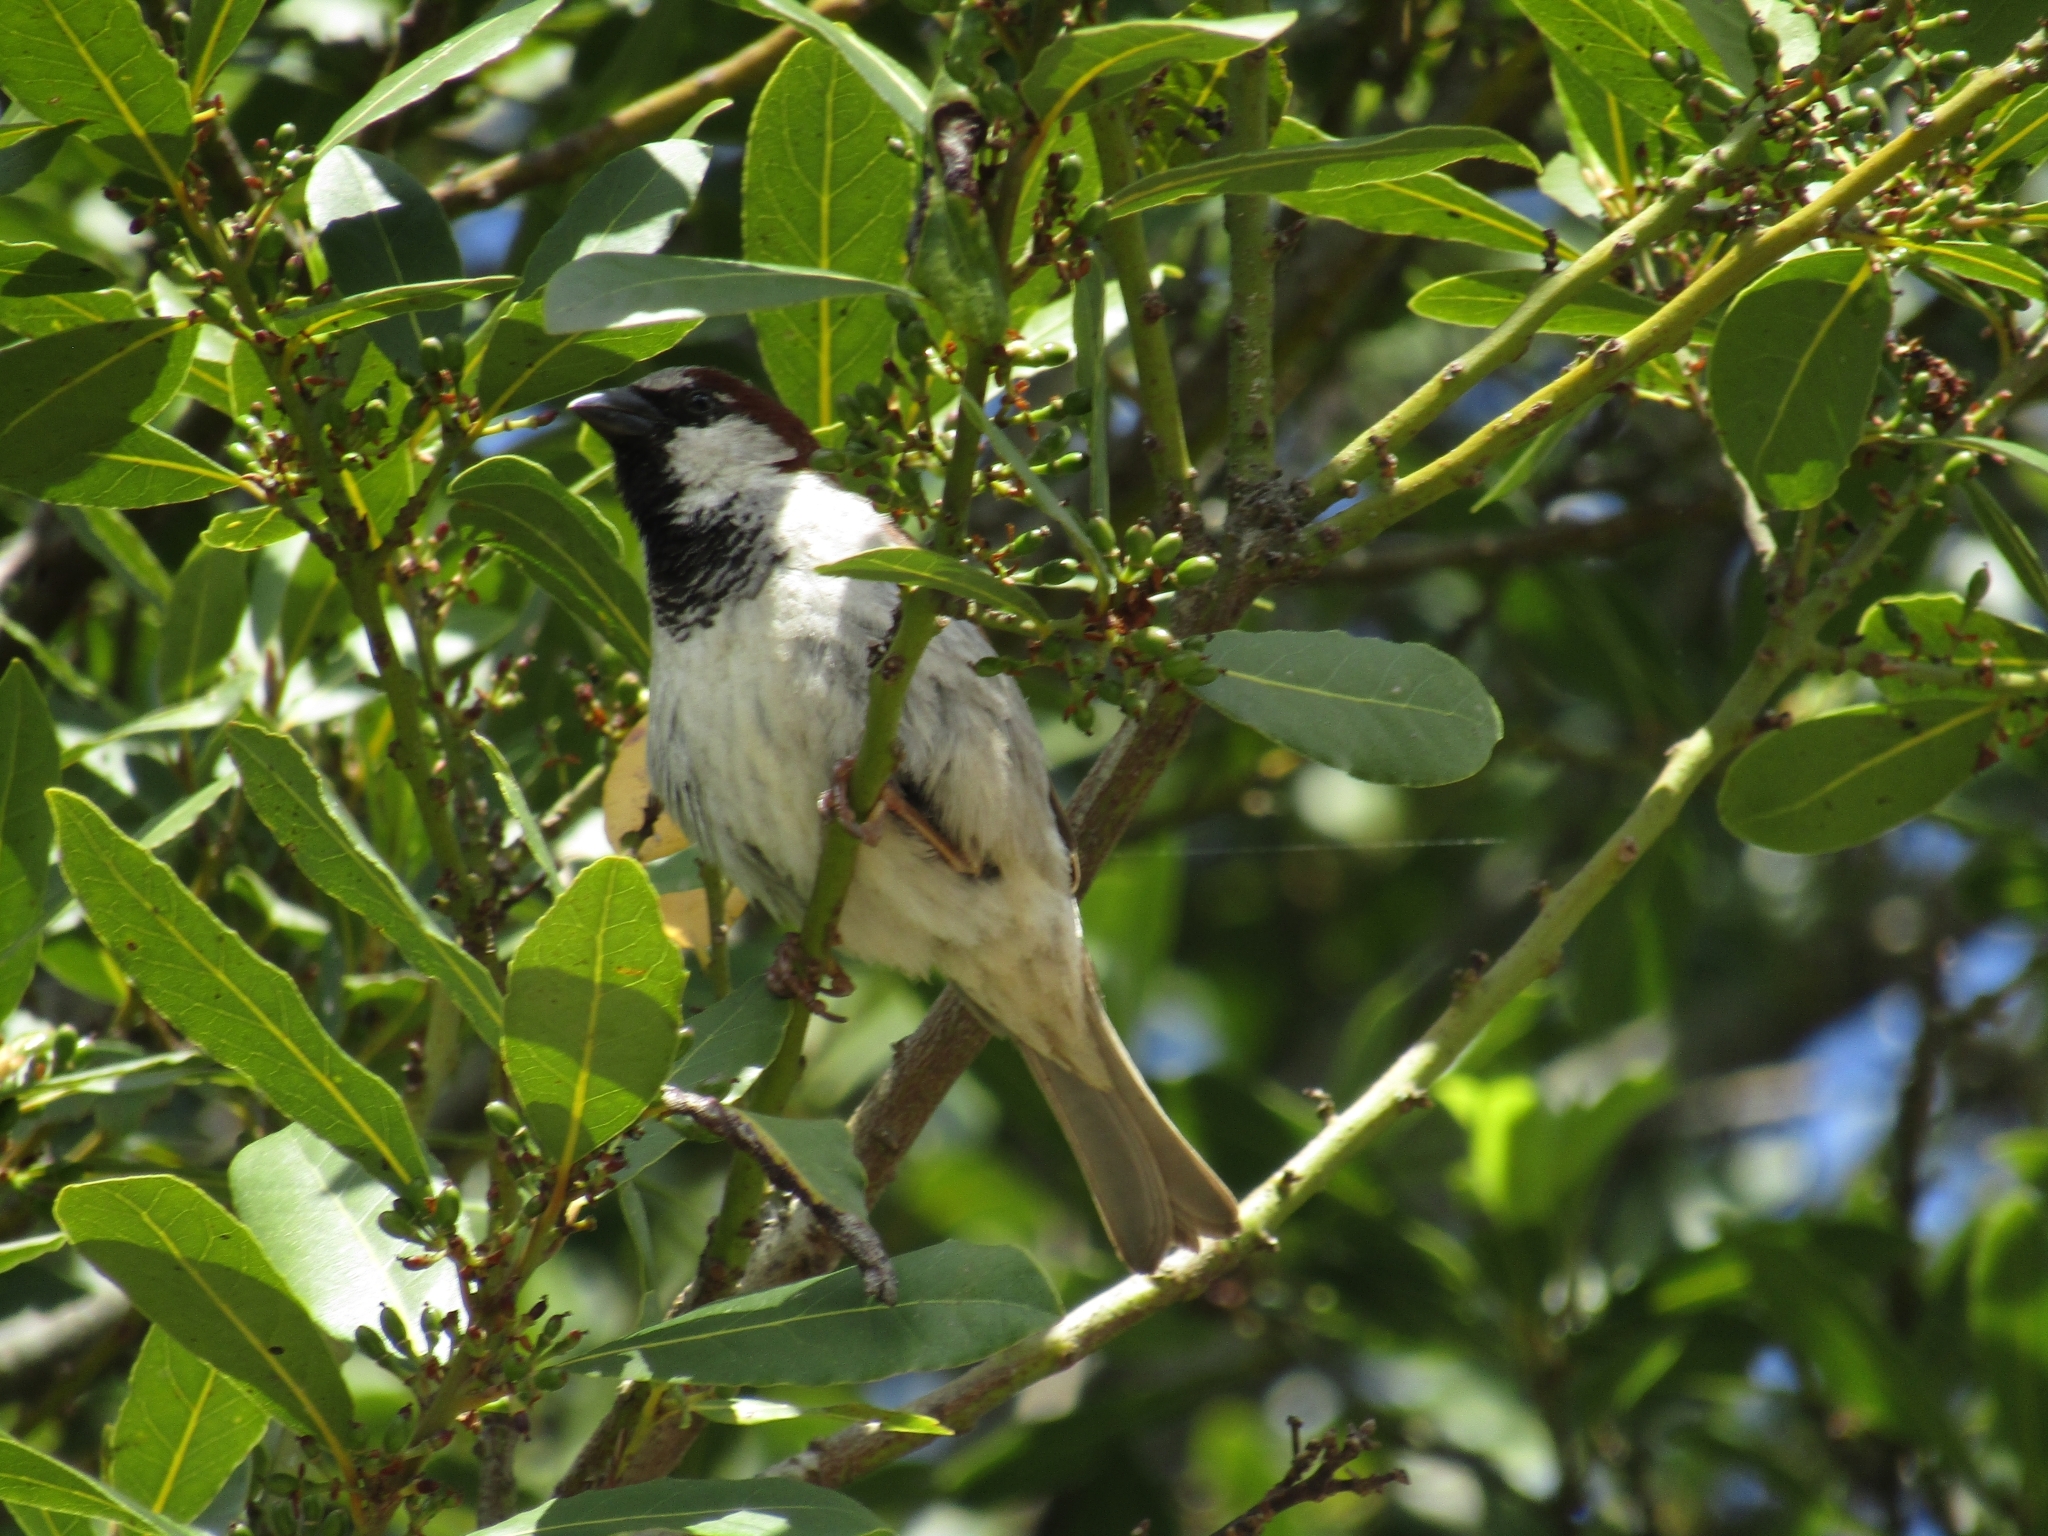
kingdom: Animalia
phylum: Chordata
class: Aves
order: Passeriformes
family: Passeridae
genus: Passer
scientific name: Passer domesticus
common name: House sparrow
